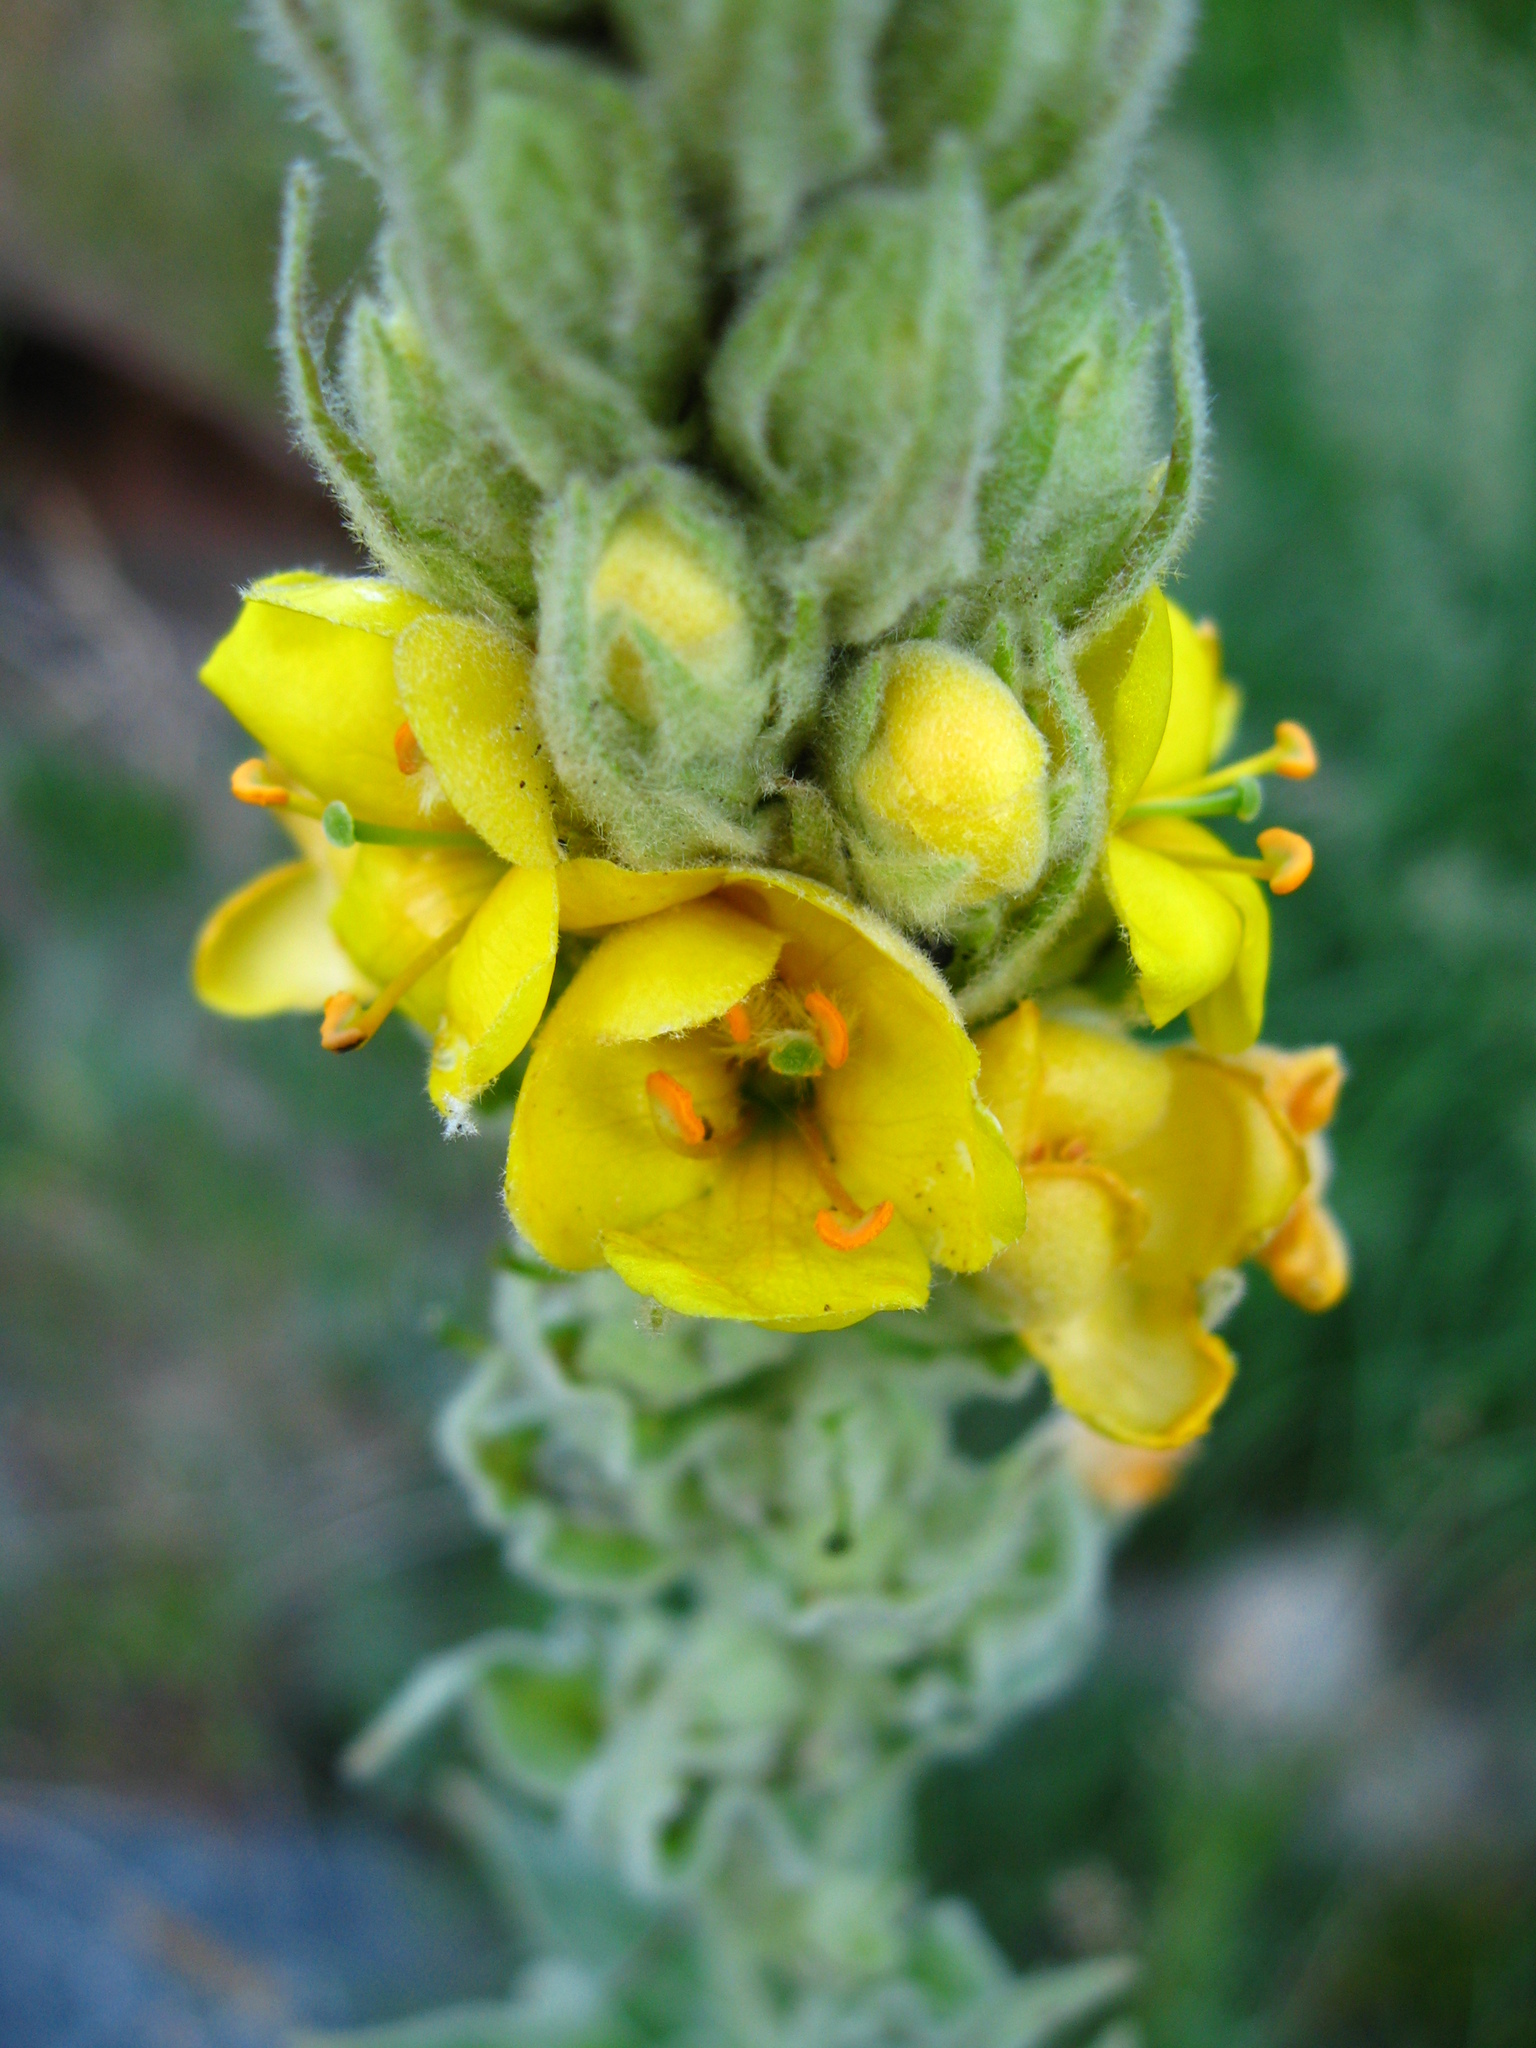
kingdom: Plantae
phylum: Tracheophyta
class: Magnoliopsida
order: Lamiales
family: Scrophulariaceae
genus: Verbascum
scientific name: Verbascum thapsus
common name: Common mullein
